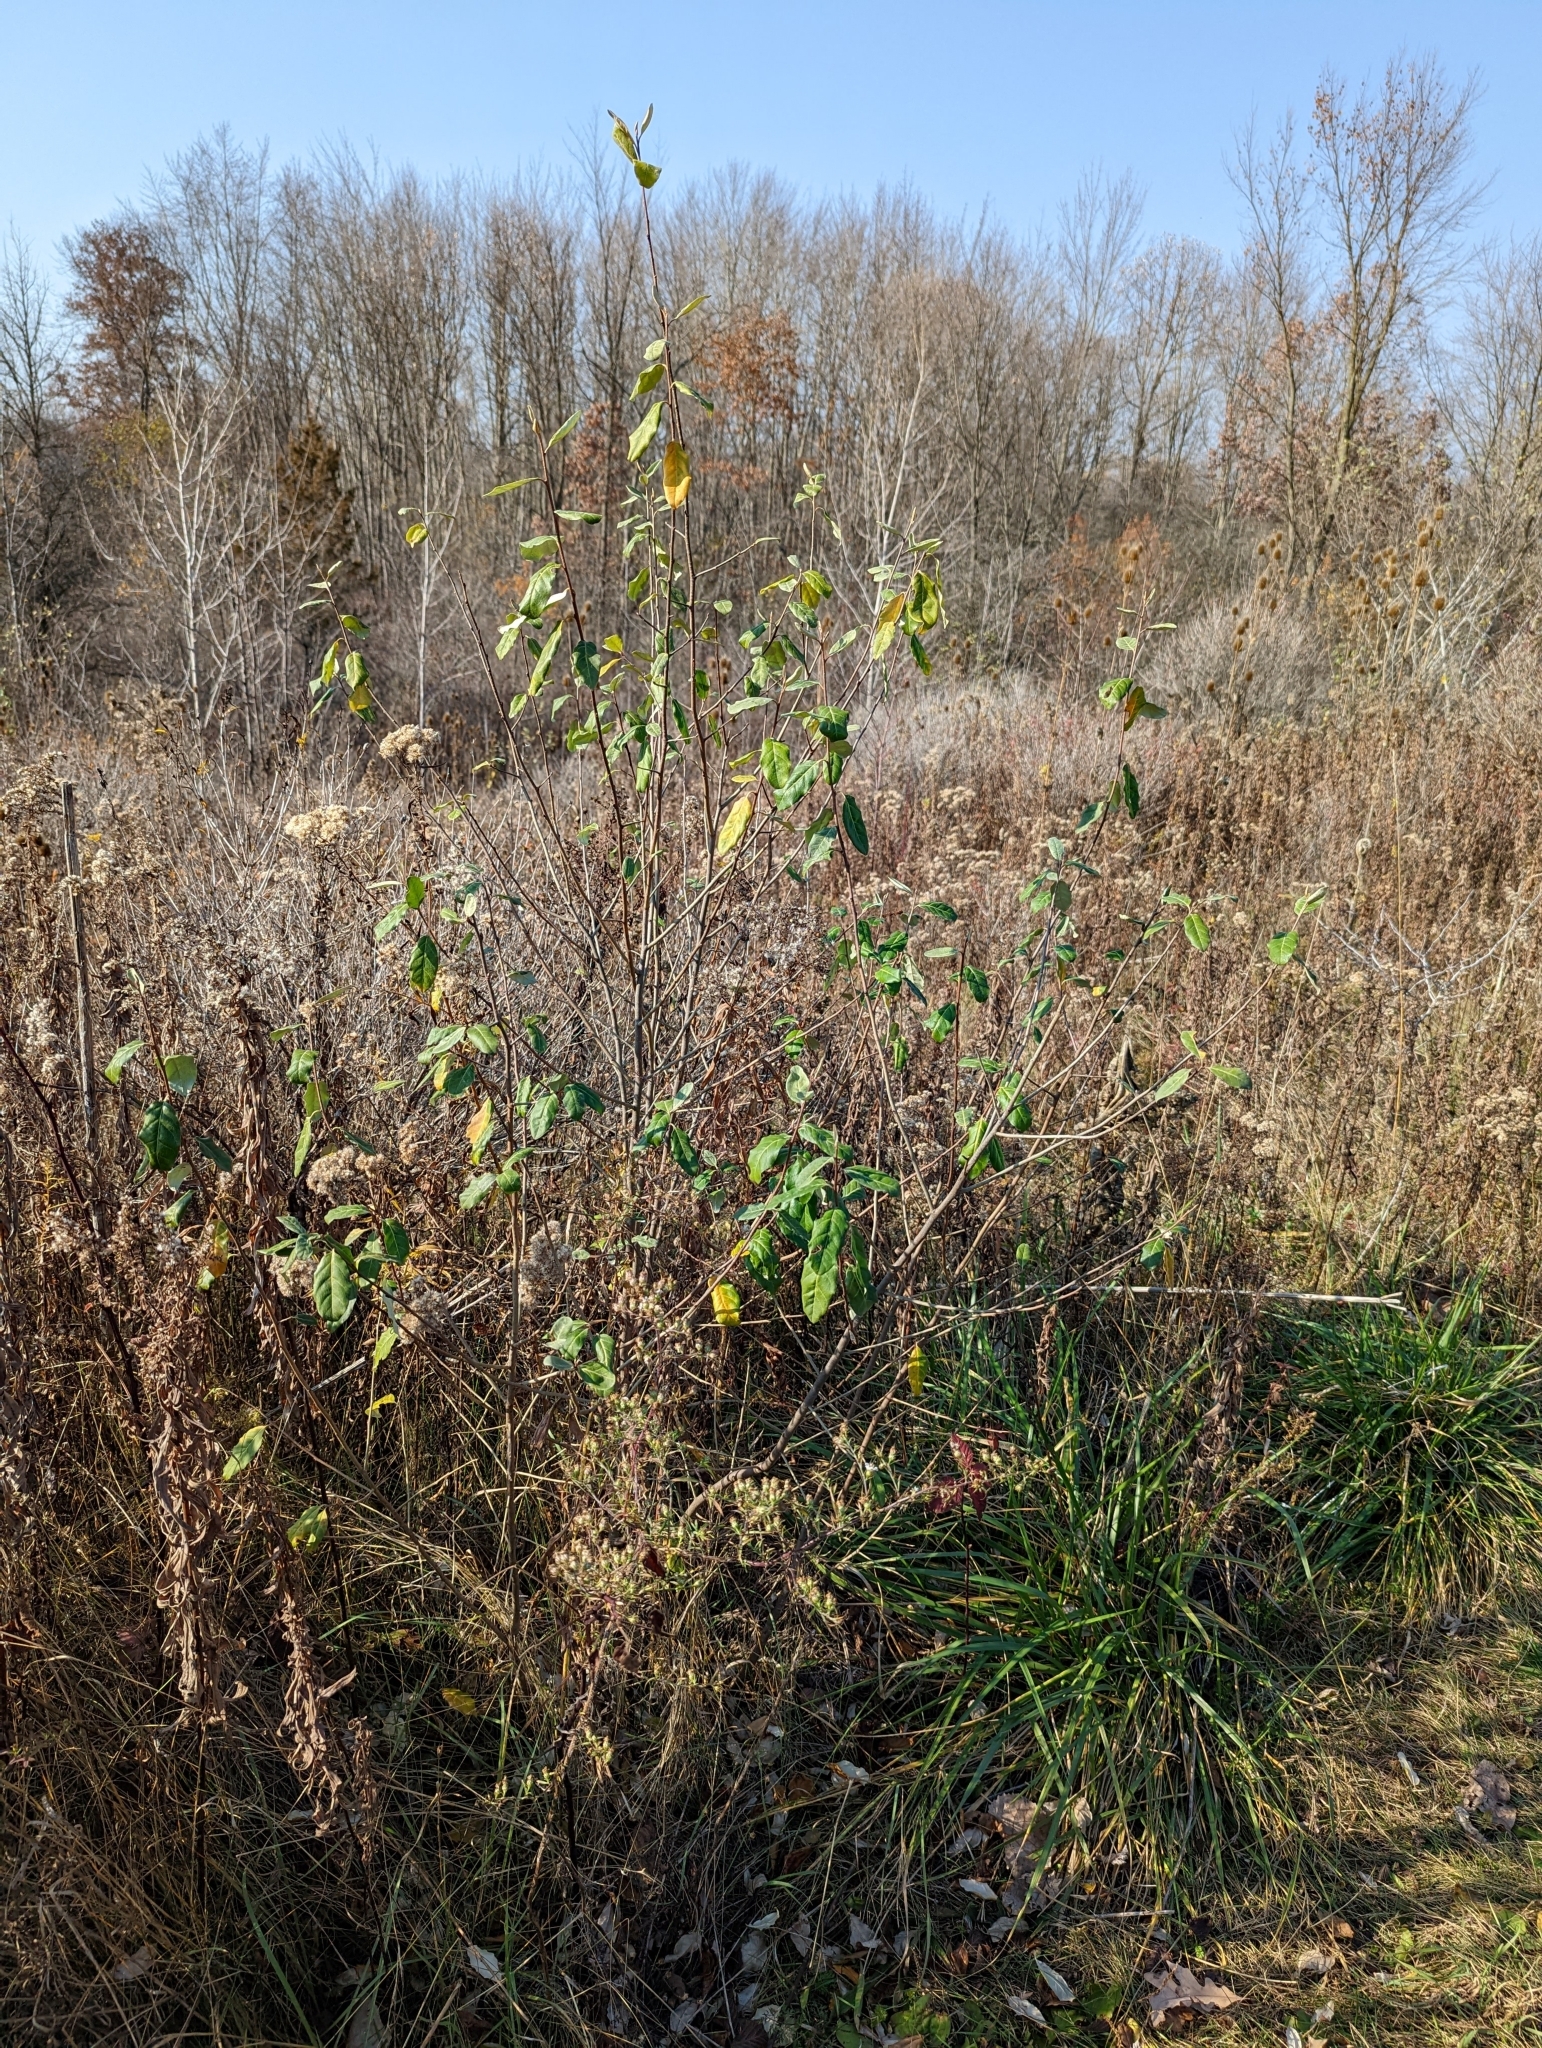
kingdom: Plantae
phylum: Tracheophyta
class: Magnoliopsida
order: Rosales
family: Elaeagnaceae
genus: Elaeagnus
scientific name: Elaeagnus umbellata
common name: Autumn olive
